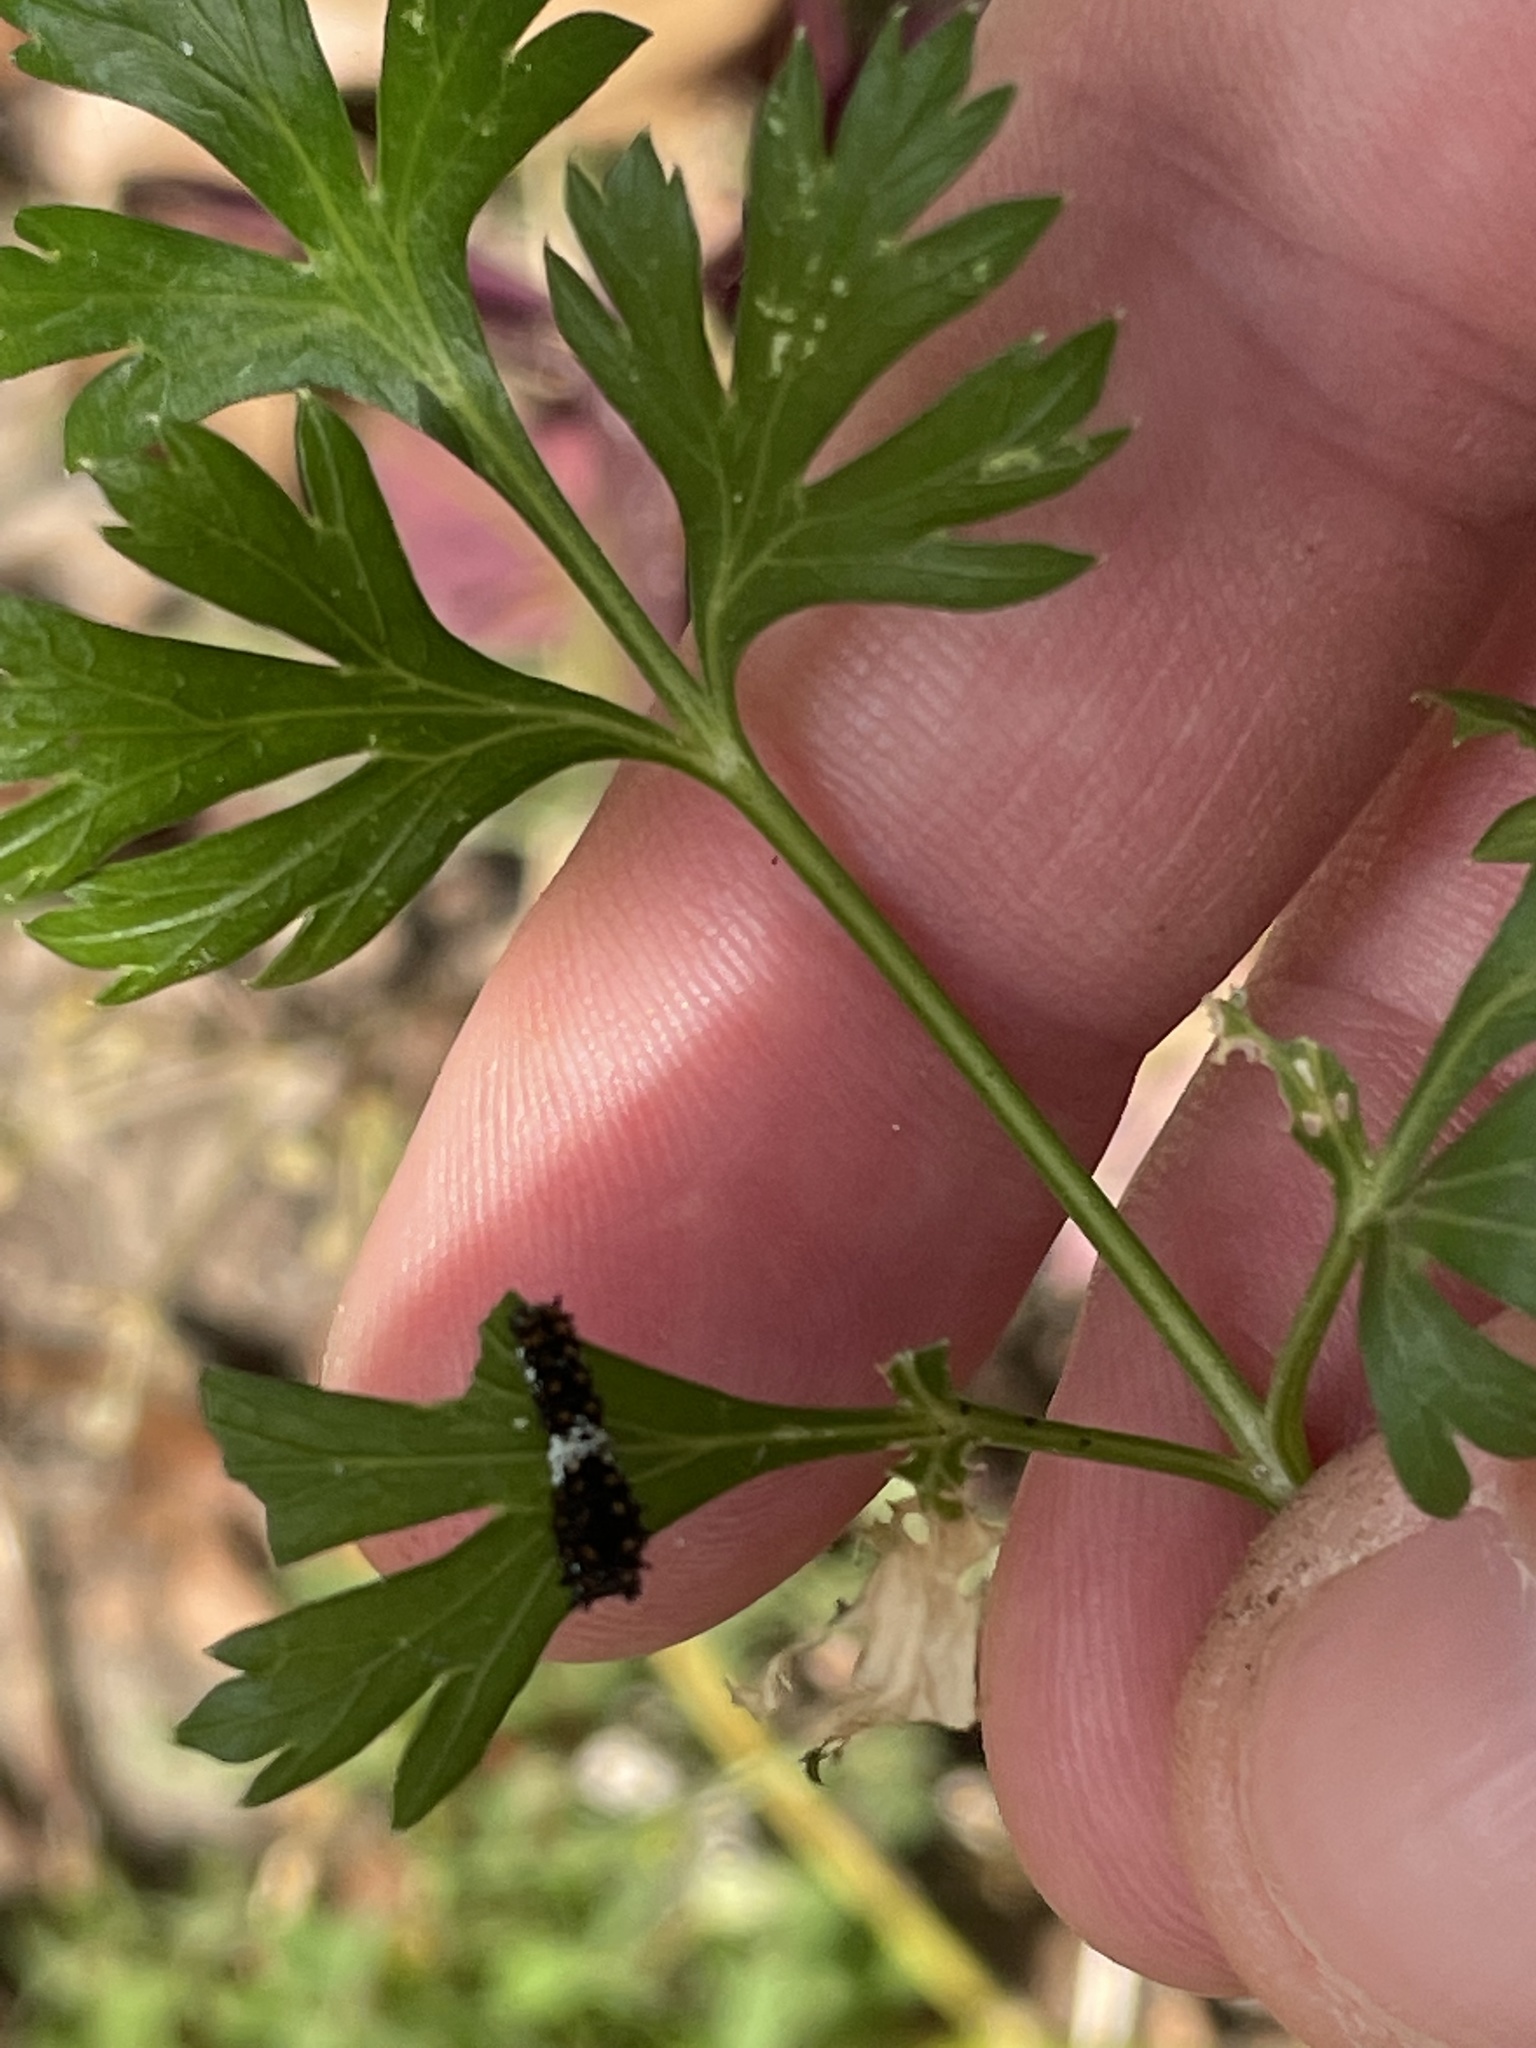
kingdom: Animalia
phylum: Arthropoda
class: Insecta
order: Lepidoptera
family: Papilionidae
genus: Papilio
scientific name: Papilio polyxenes
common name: Black swallowtail
